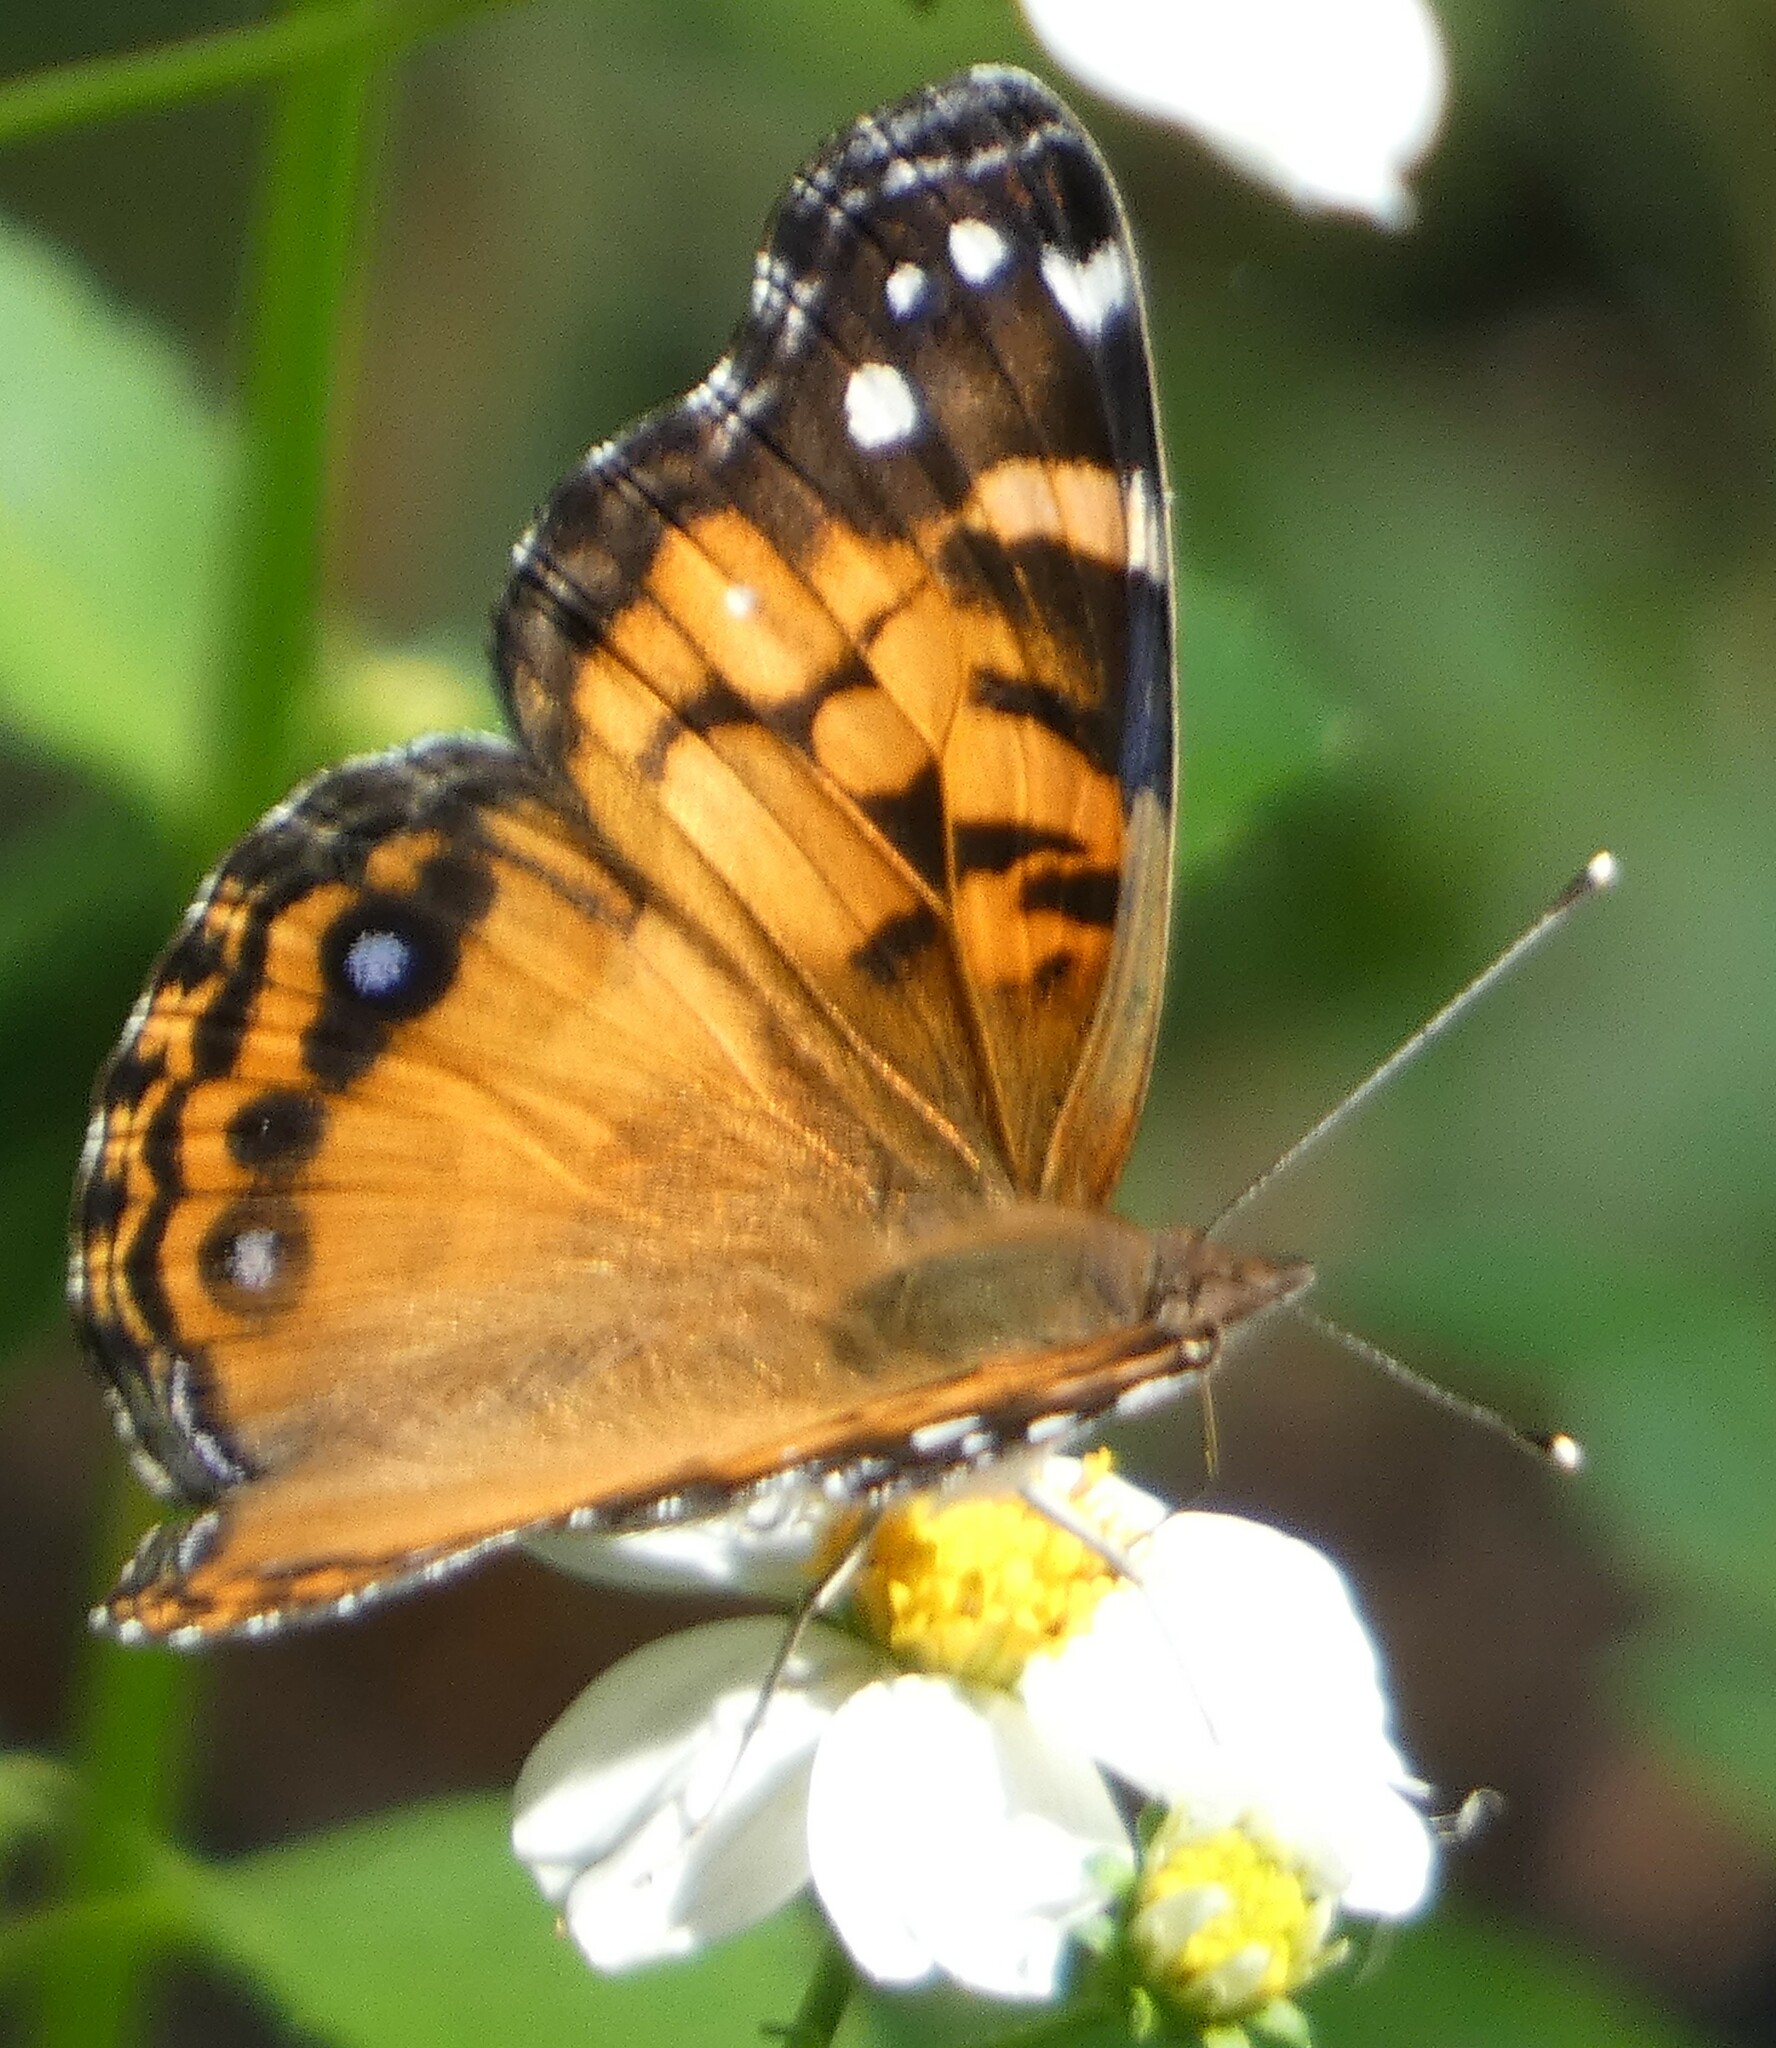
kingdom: Animalia
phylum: Arthropoda
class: Insecta
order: Lepidoptera
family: Nymphalidae
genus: Vanessa
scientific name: Vanessa virginiensis
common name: American lady
